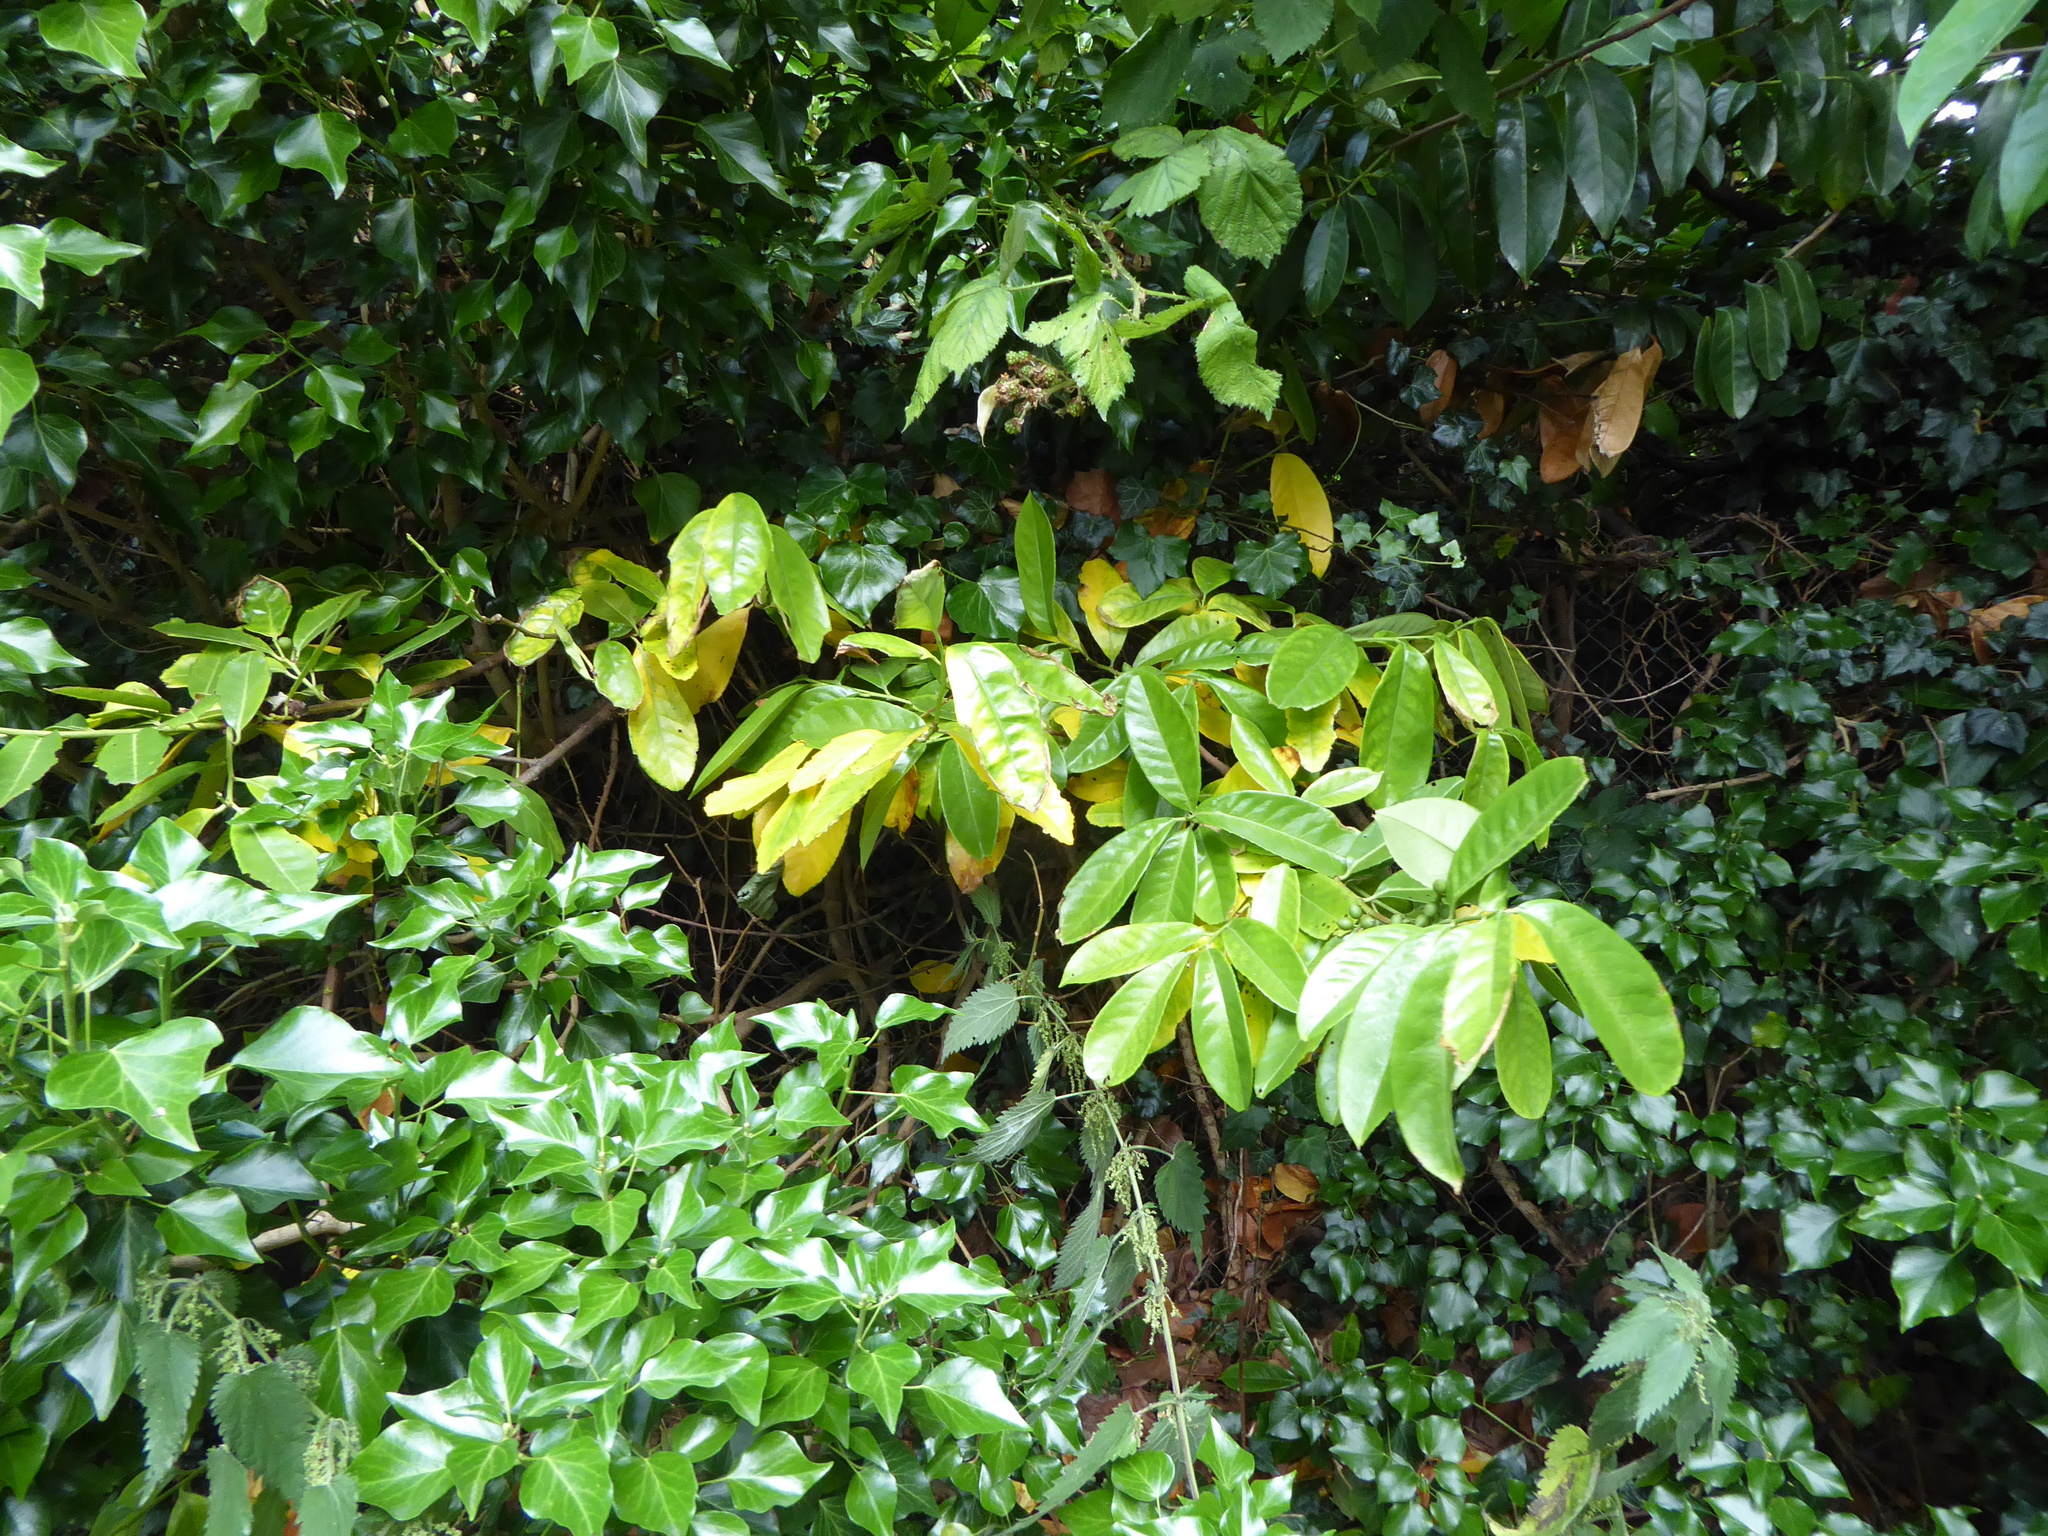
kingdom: Plantae
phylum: Tracheophyta
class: Magnoliopsida
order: Rosales
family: Rosaceae
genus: Prunus
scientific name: Prunus laurocerasus
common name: Cherry laurel
